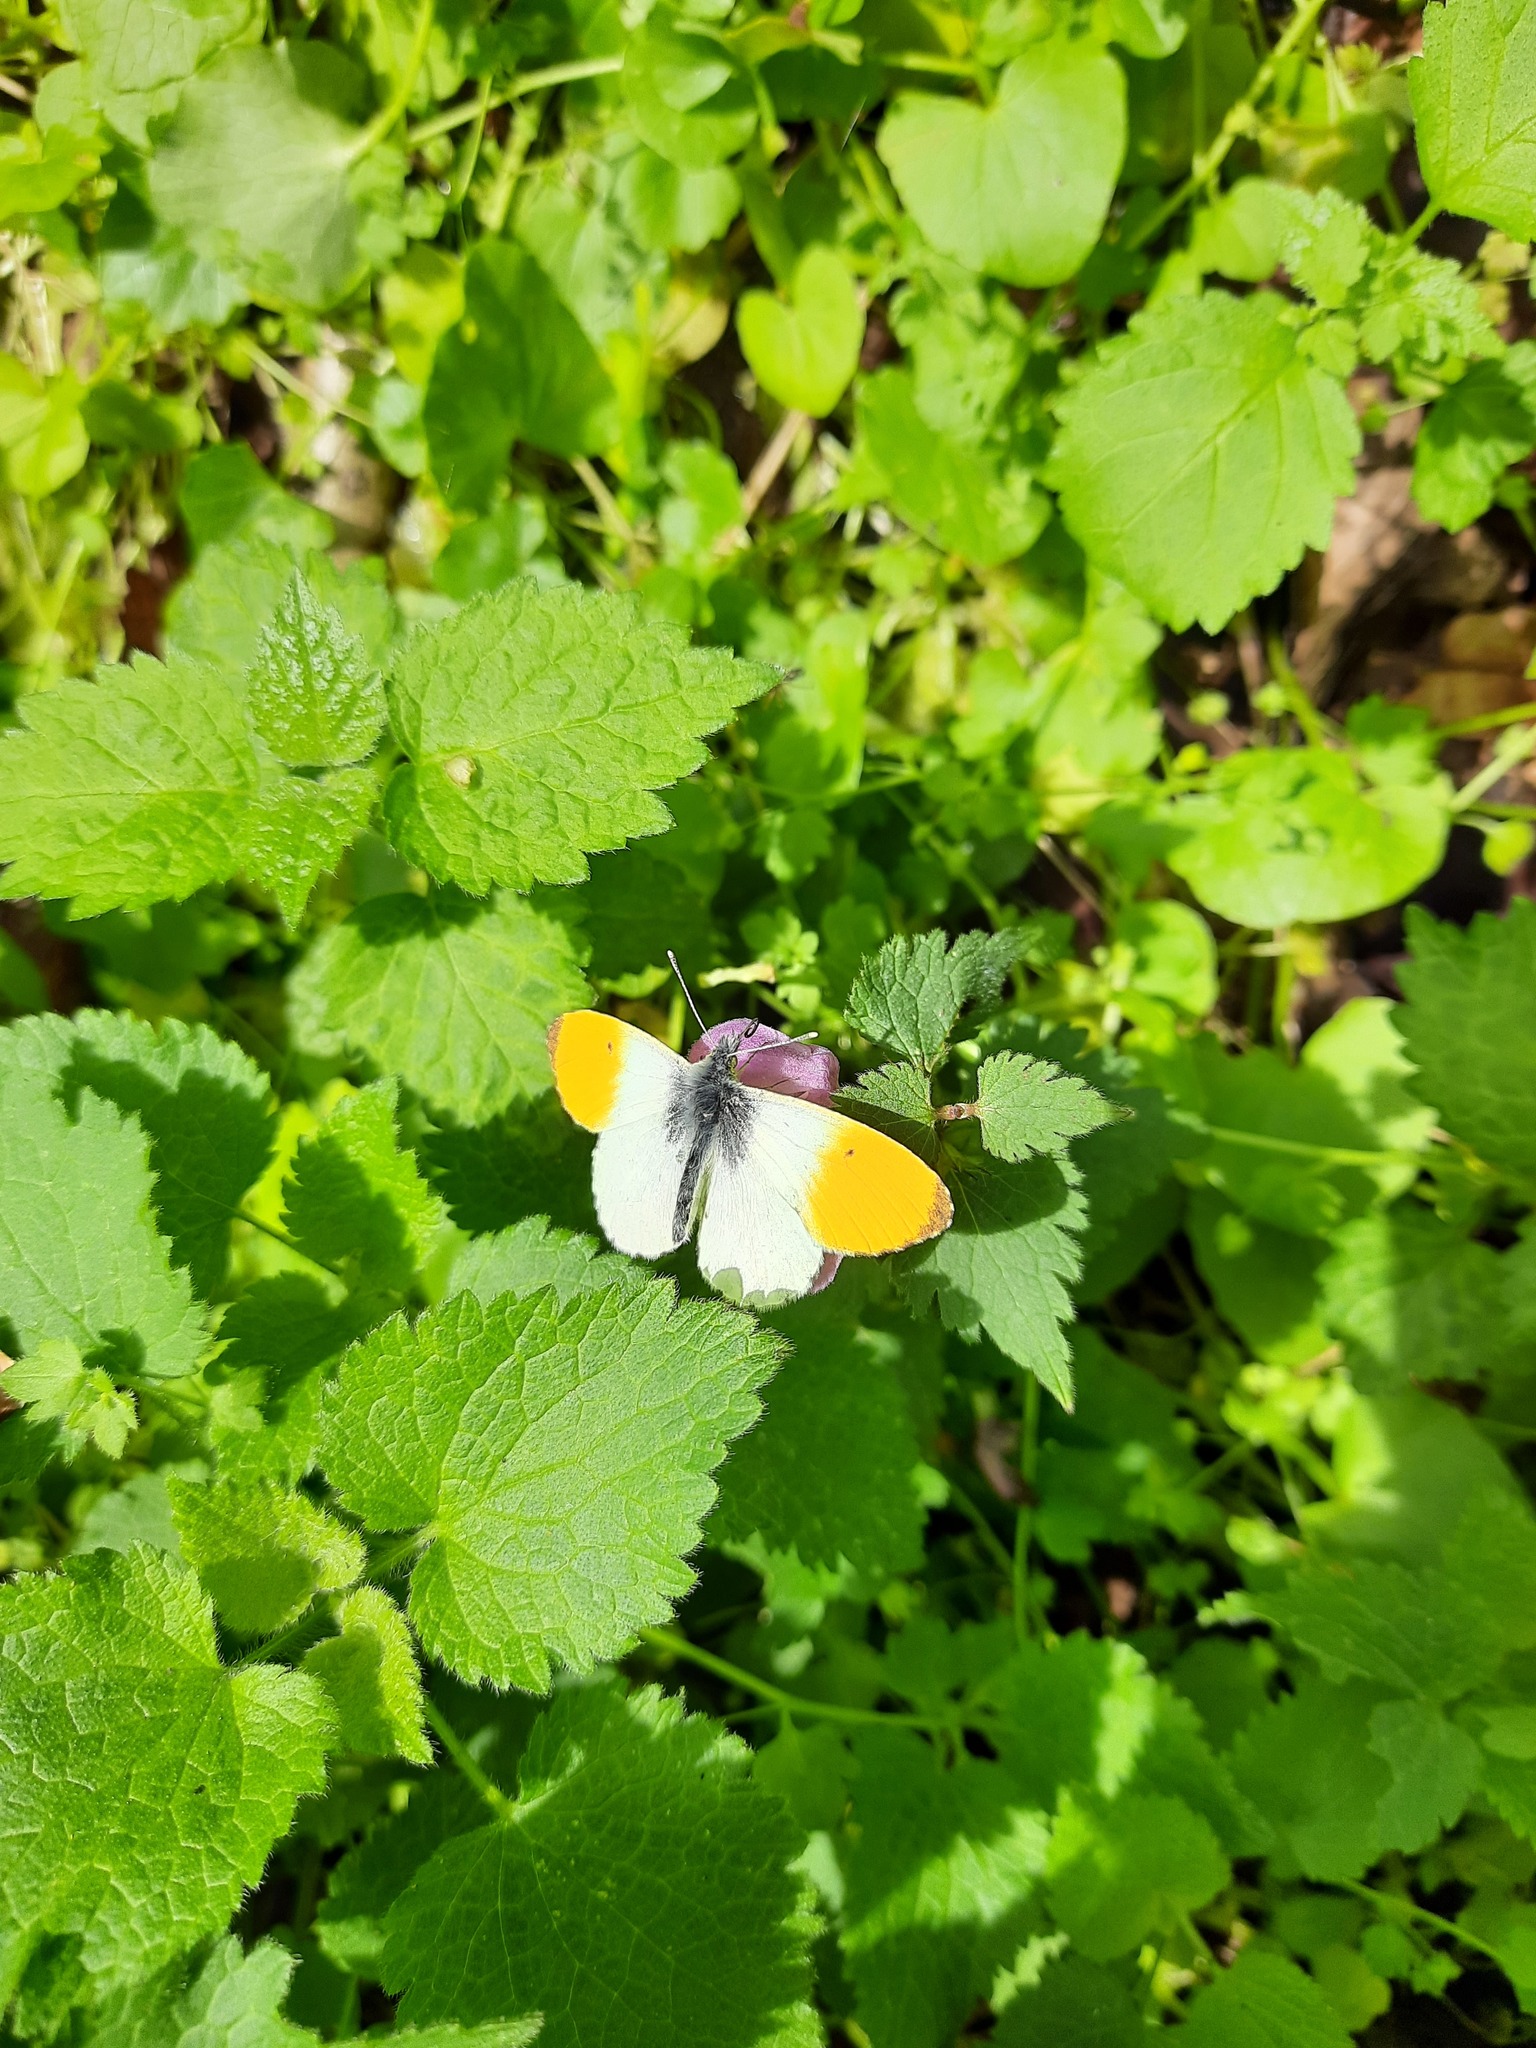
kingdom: Animalia
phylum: Arthropoda
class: Insecta
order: Lepidoptera
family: Pieridae
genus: Anthocharis
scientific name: Anthocharis cardamines
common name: Orange-tip
